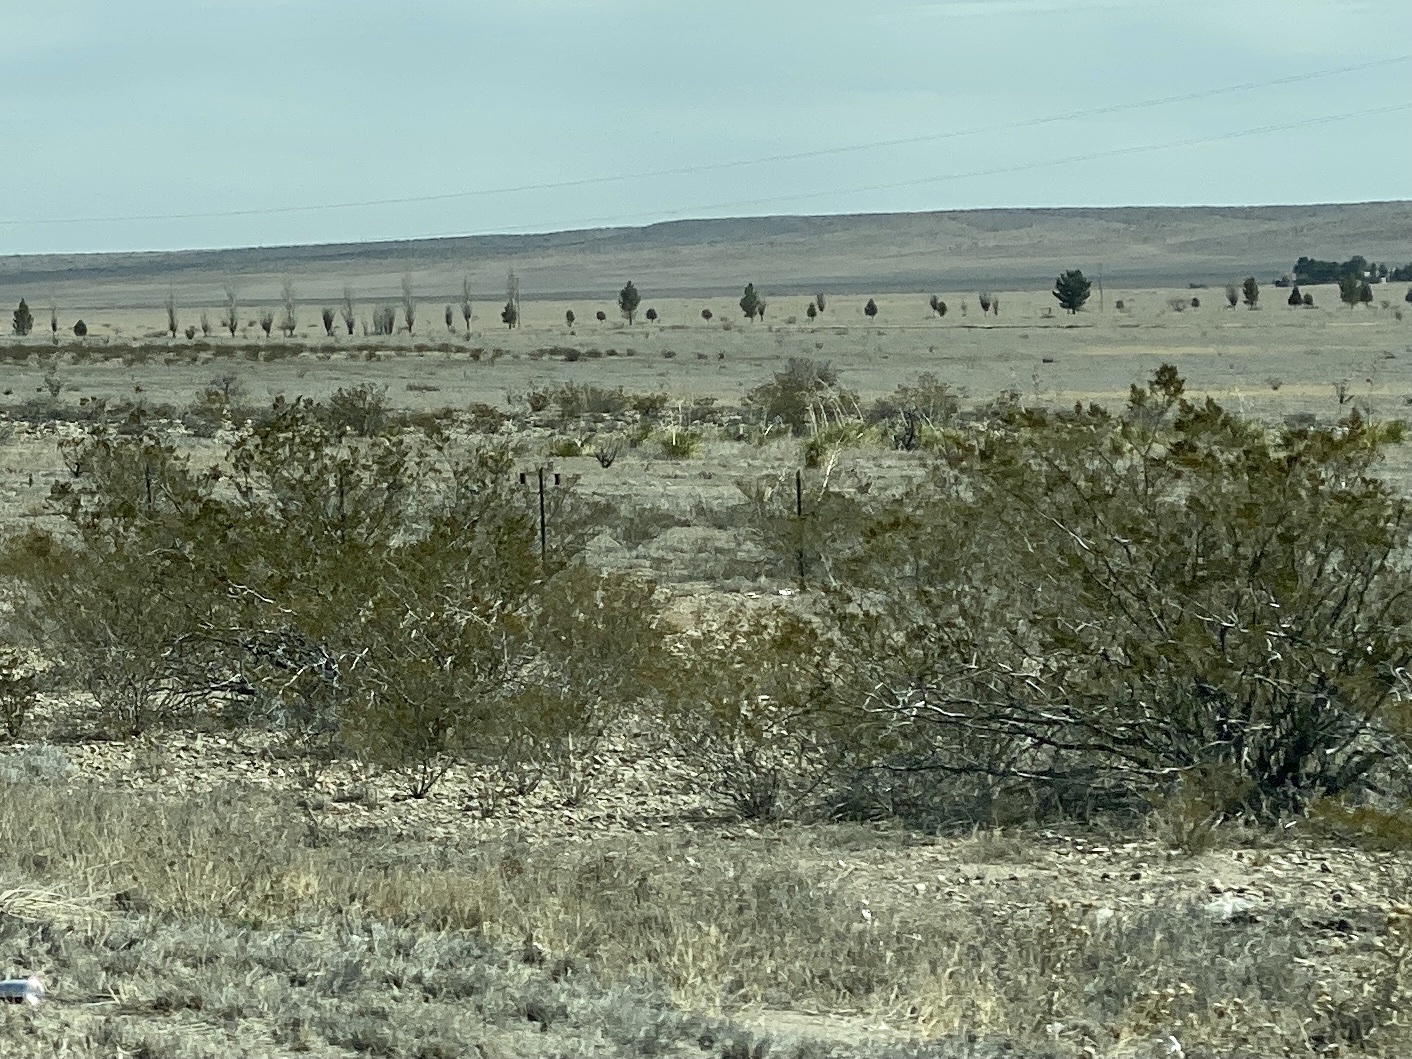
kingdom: Plantae
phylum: Tracheophyta
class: Magnoliopsida
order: Zygophyllales
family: Zygophyllaceae
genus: Larrea
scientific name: Larrea tridentata
